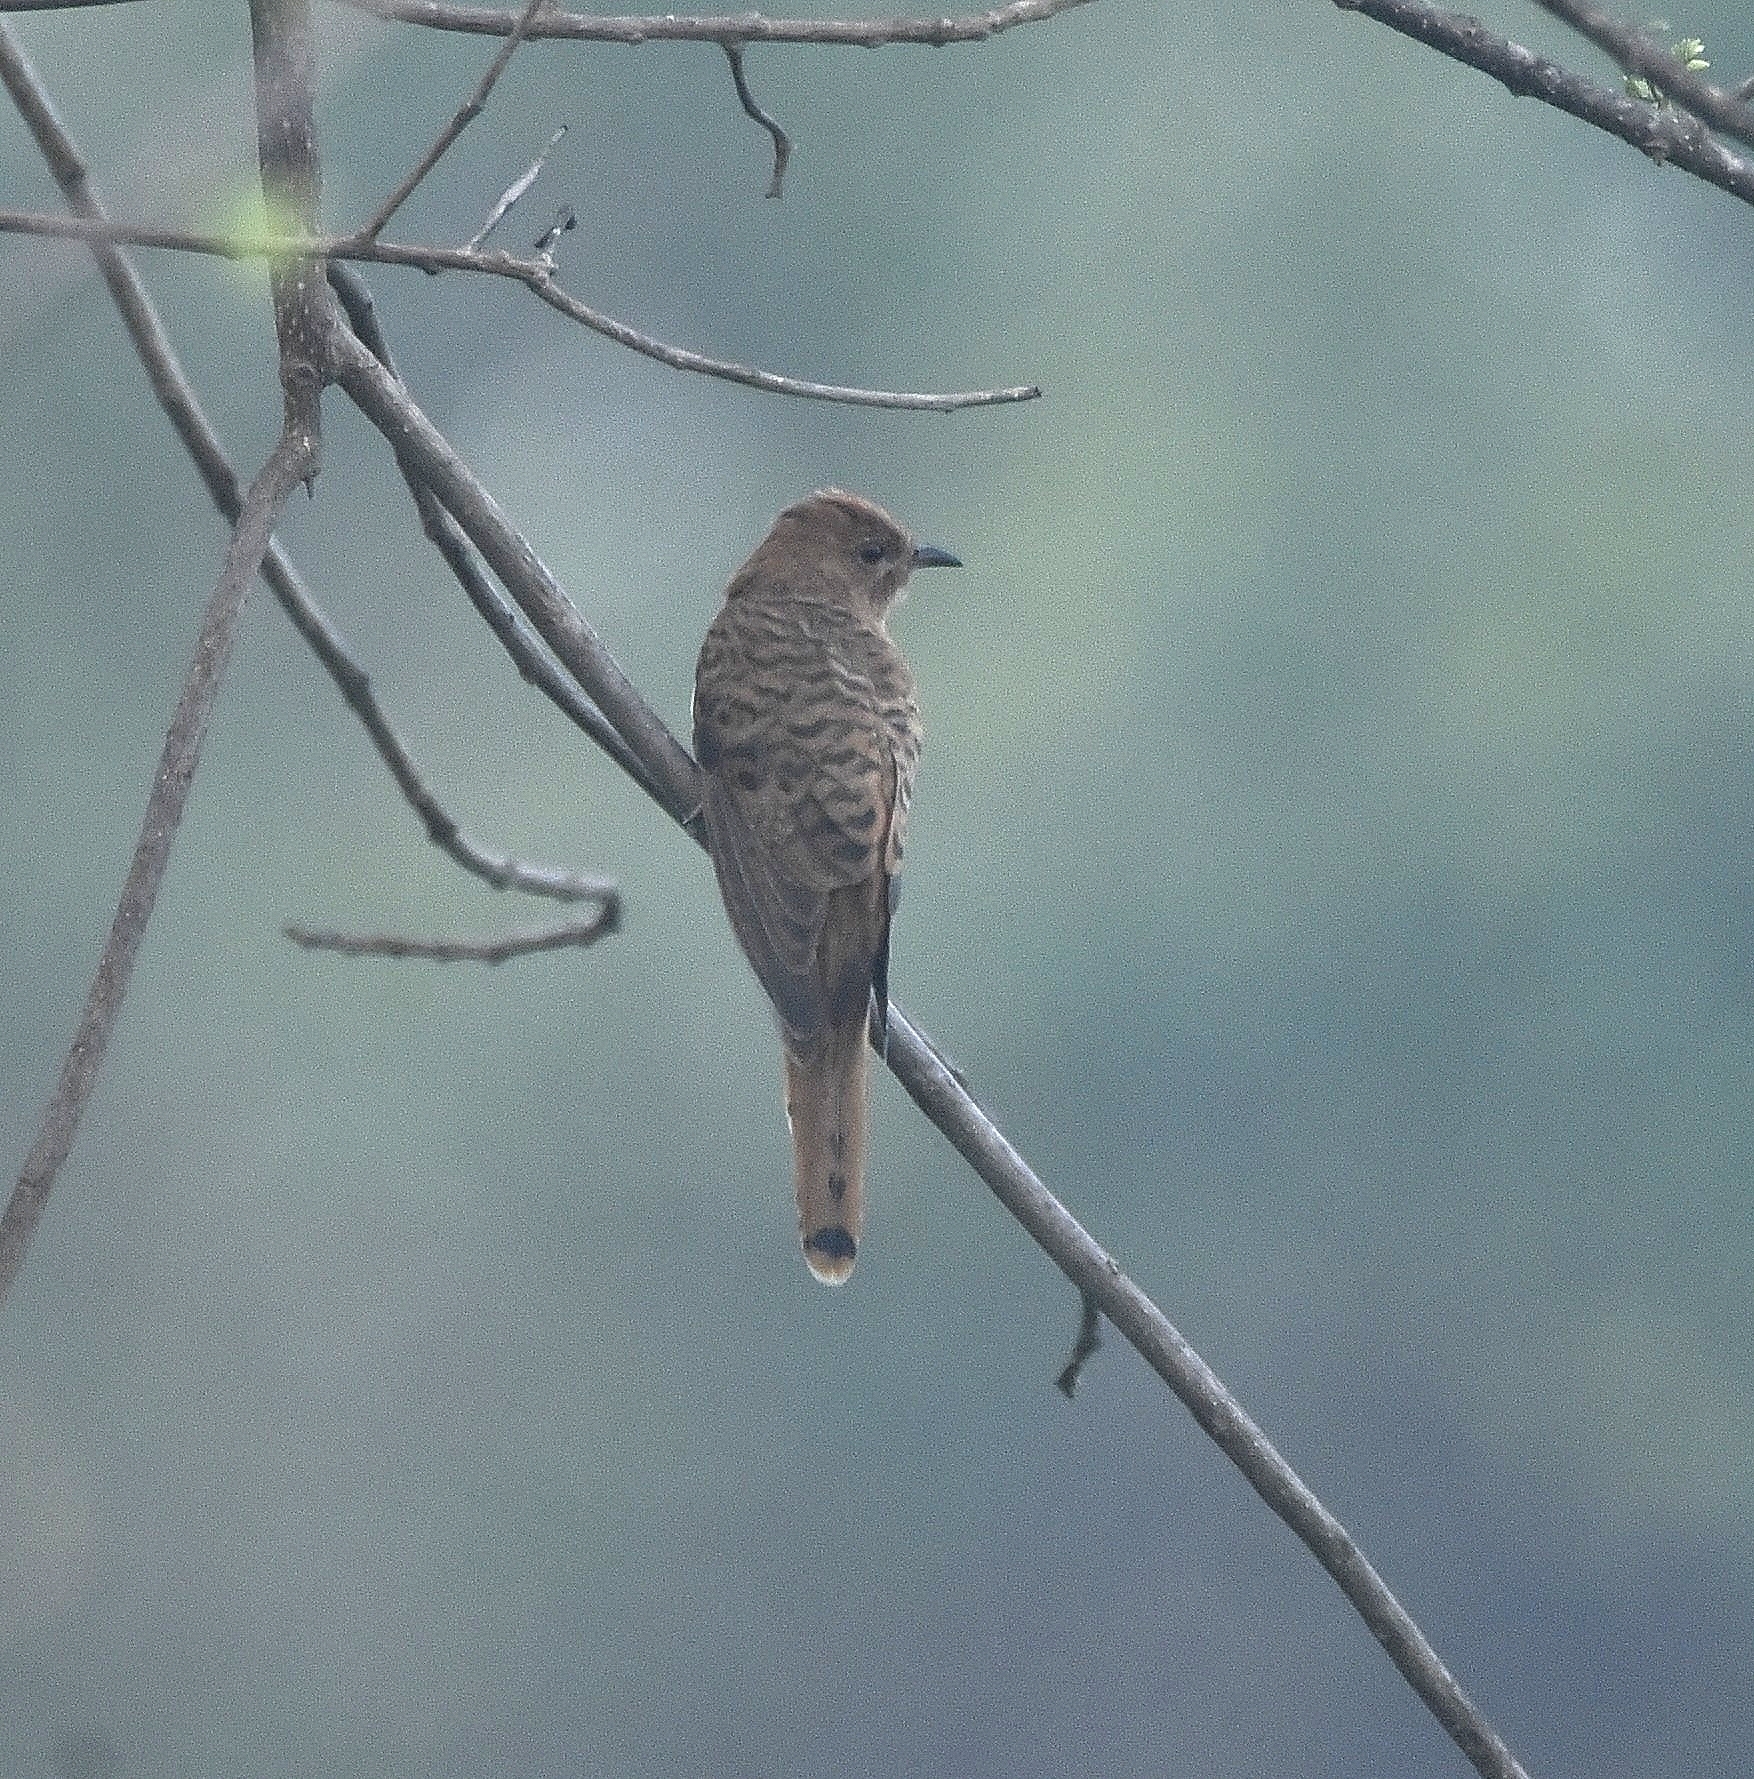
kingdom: Animalia
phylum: Chordata
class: Aves
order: Cuculiformes
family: Cuculidae
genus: Cacomantis
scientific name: Cacomantis passerinus
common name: Grey-bellied cuckoo
